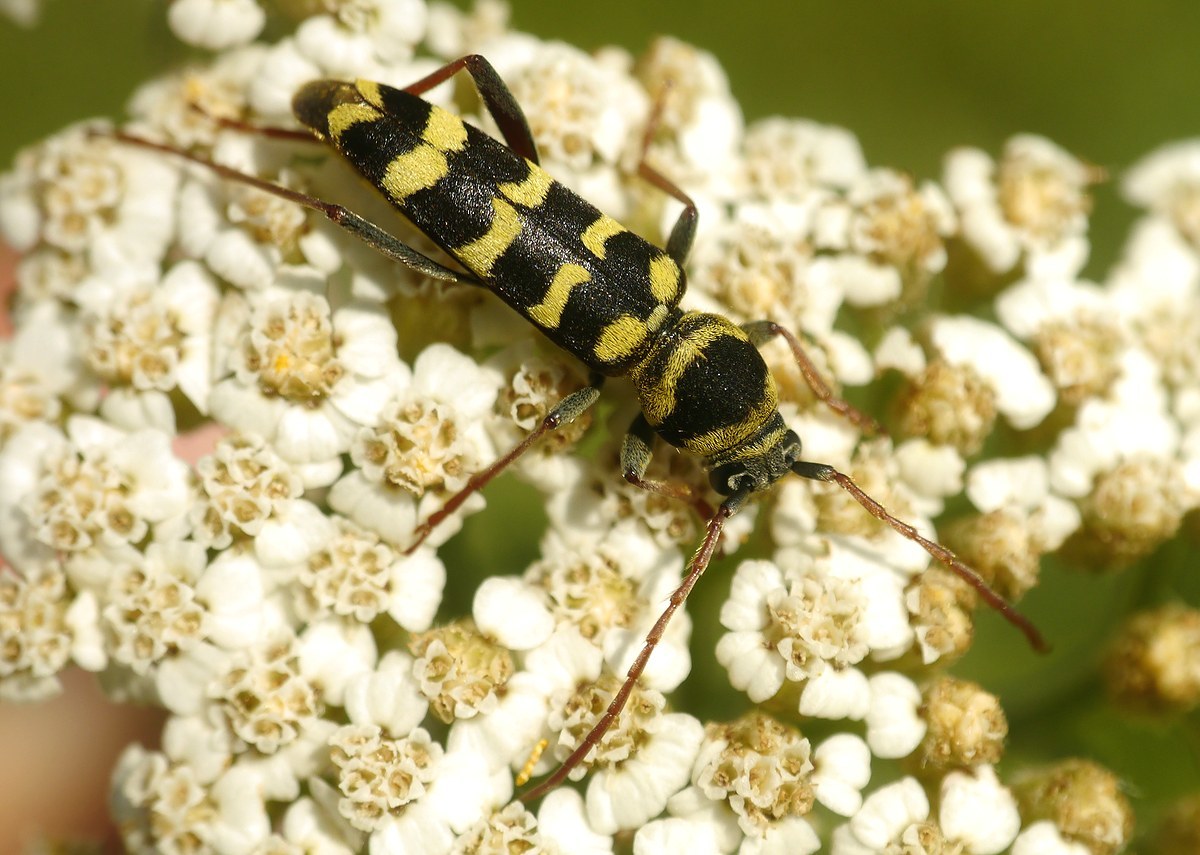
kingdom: Animalia
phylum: Arthropoda
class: Insecta
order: Coleoptera
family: Cerambycidae
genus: Plagionotus
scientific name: Plagionotus floralis
